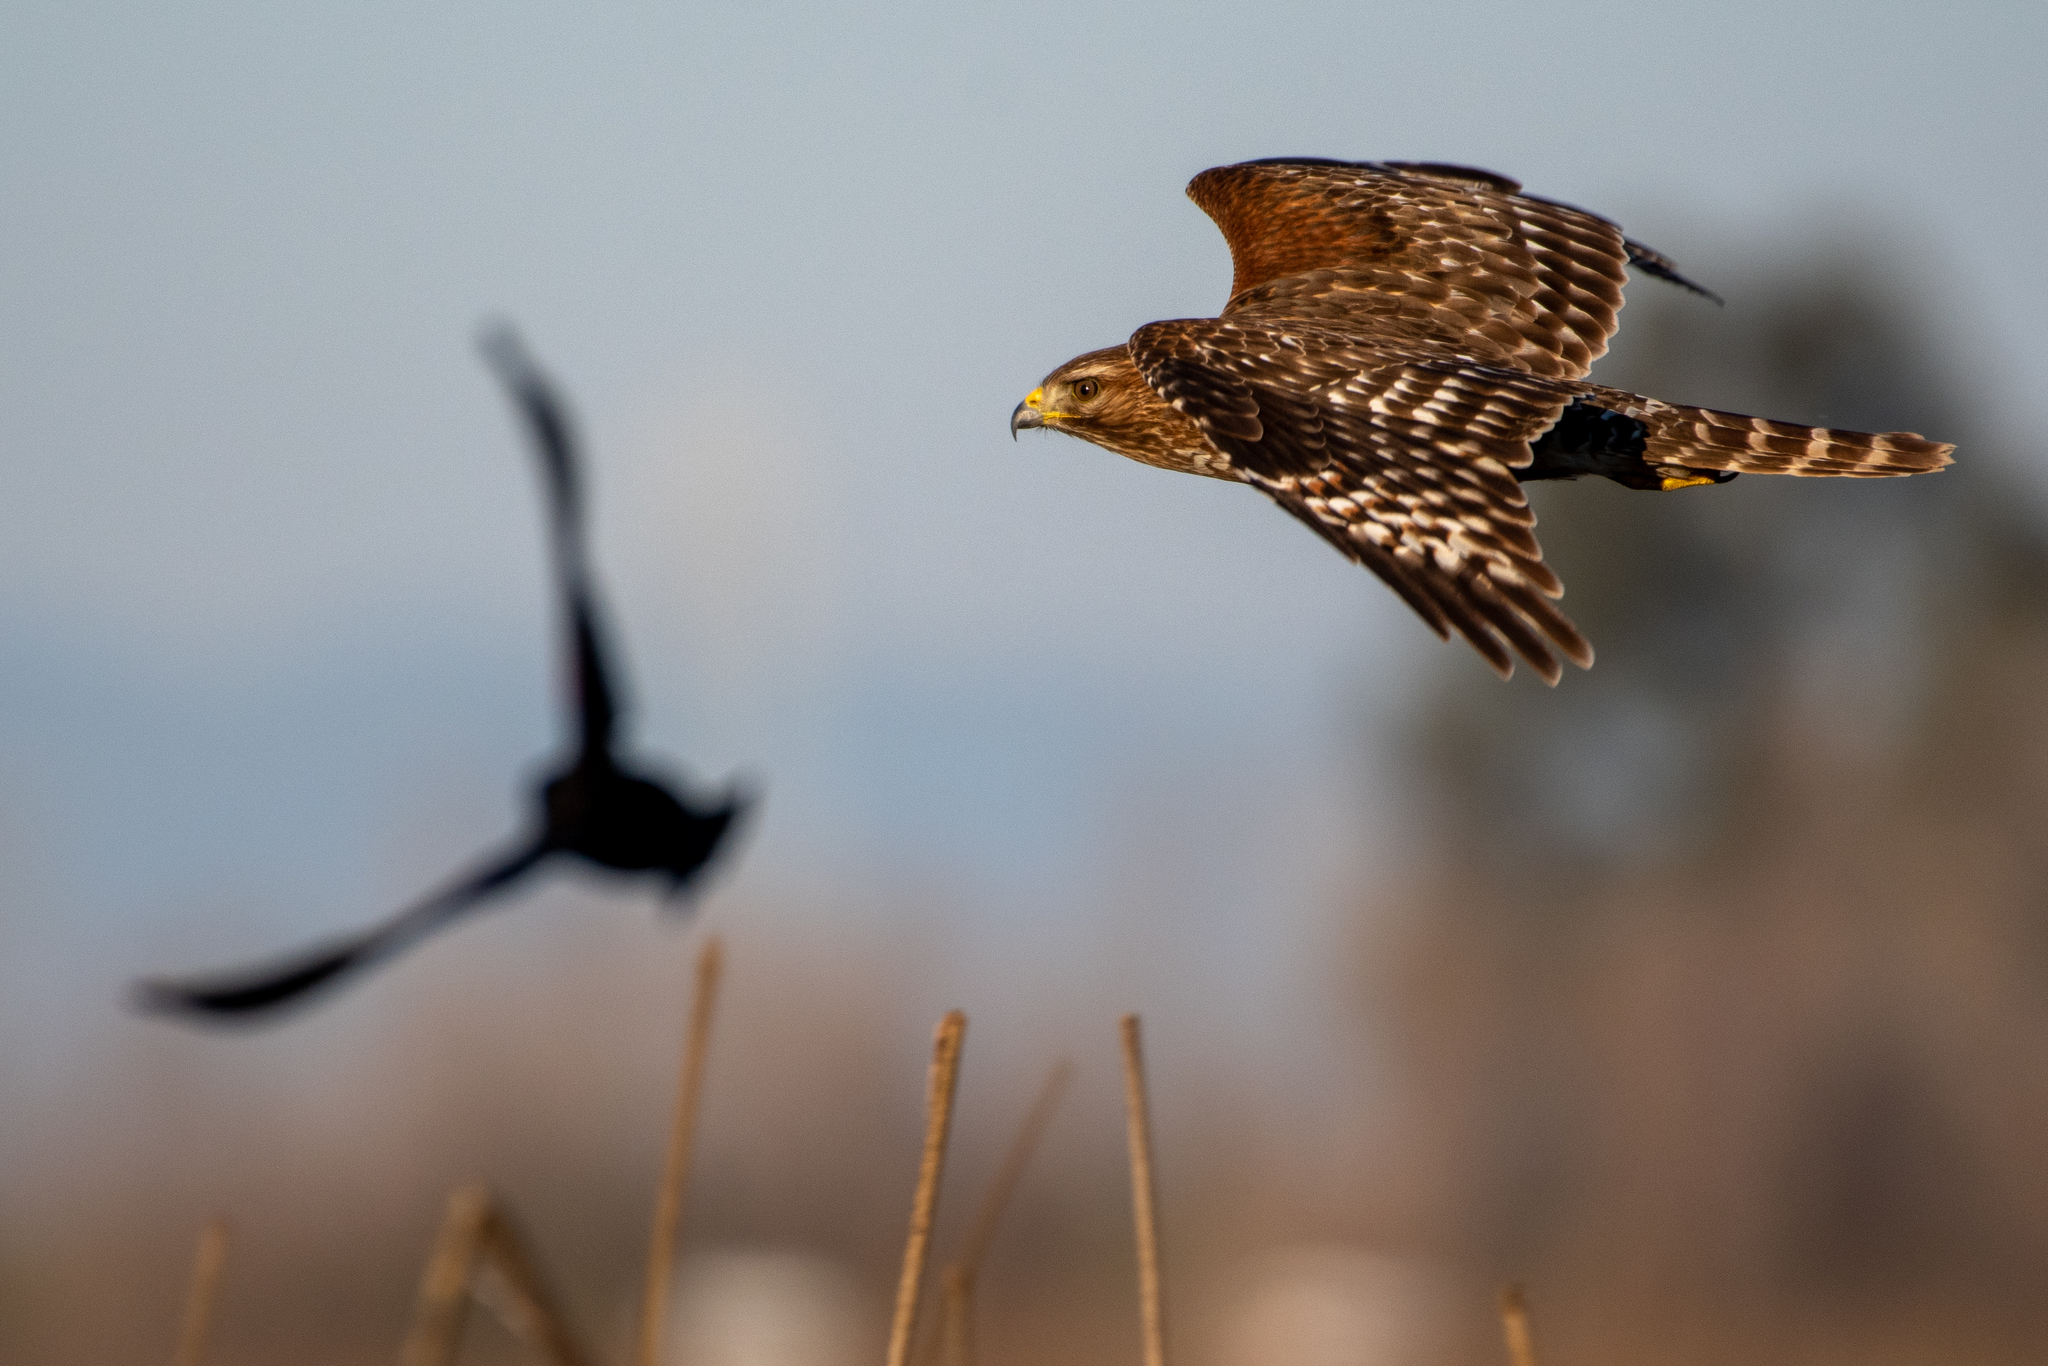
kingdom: Animalia
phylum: Chordata
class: Aves
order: Accipitriformes
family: Accipitridae
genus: Buteo
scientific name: Buteo lineatus
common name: Red-shouldered hawk
